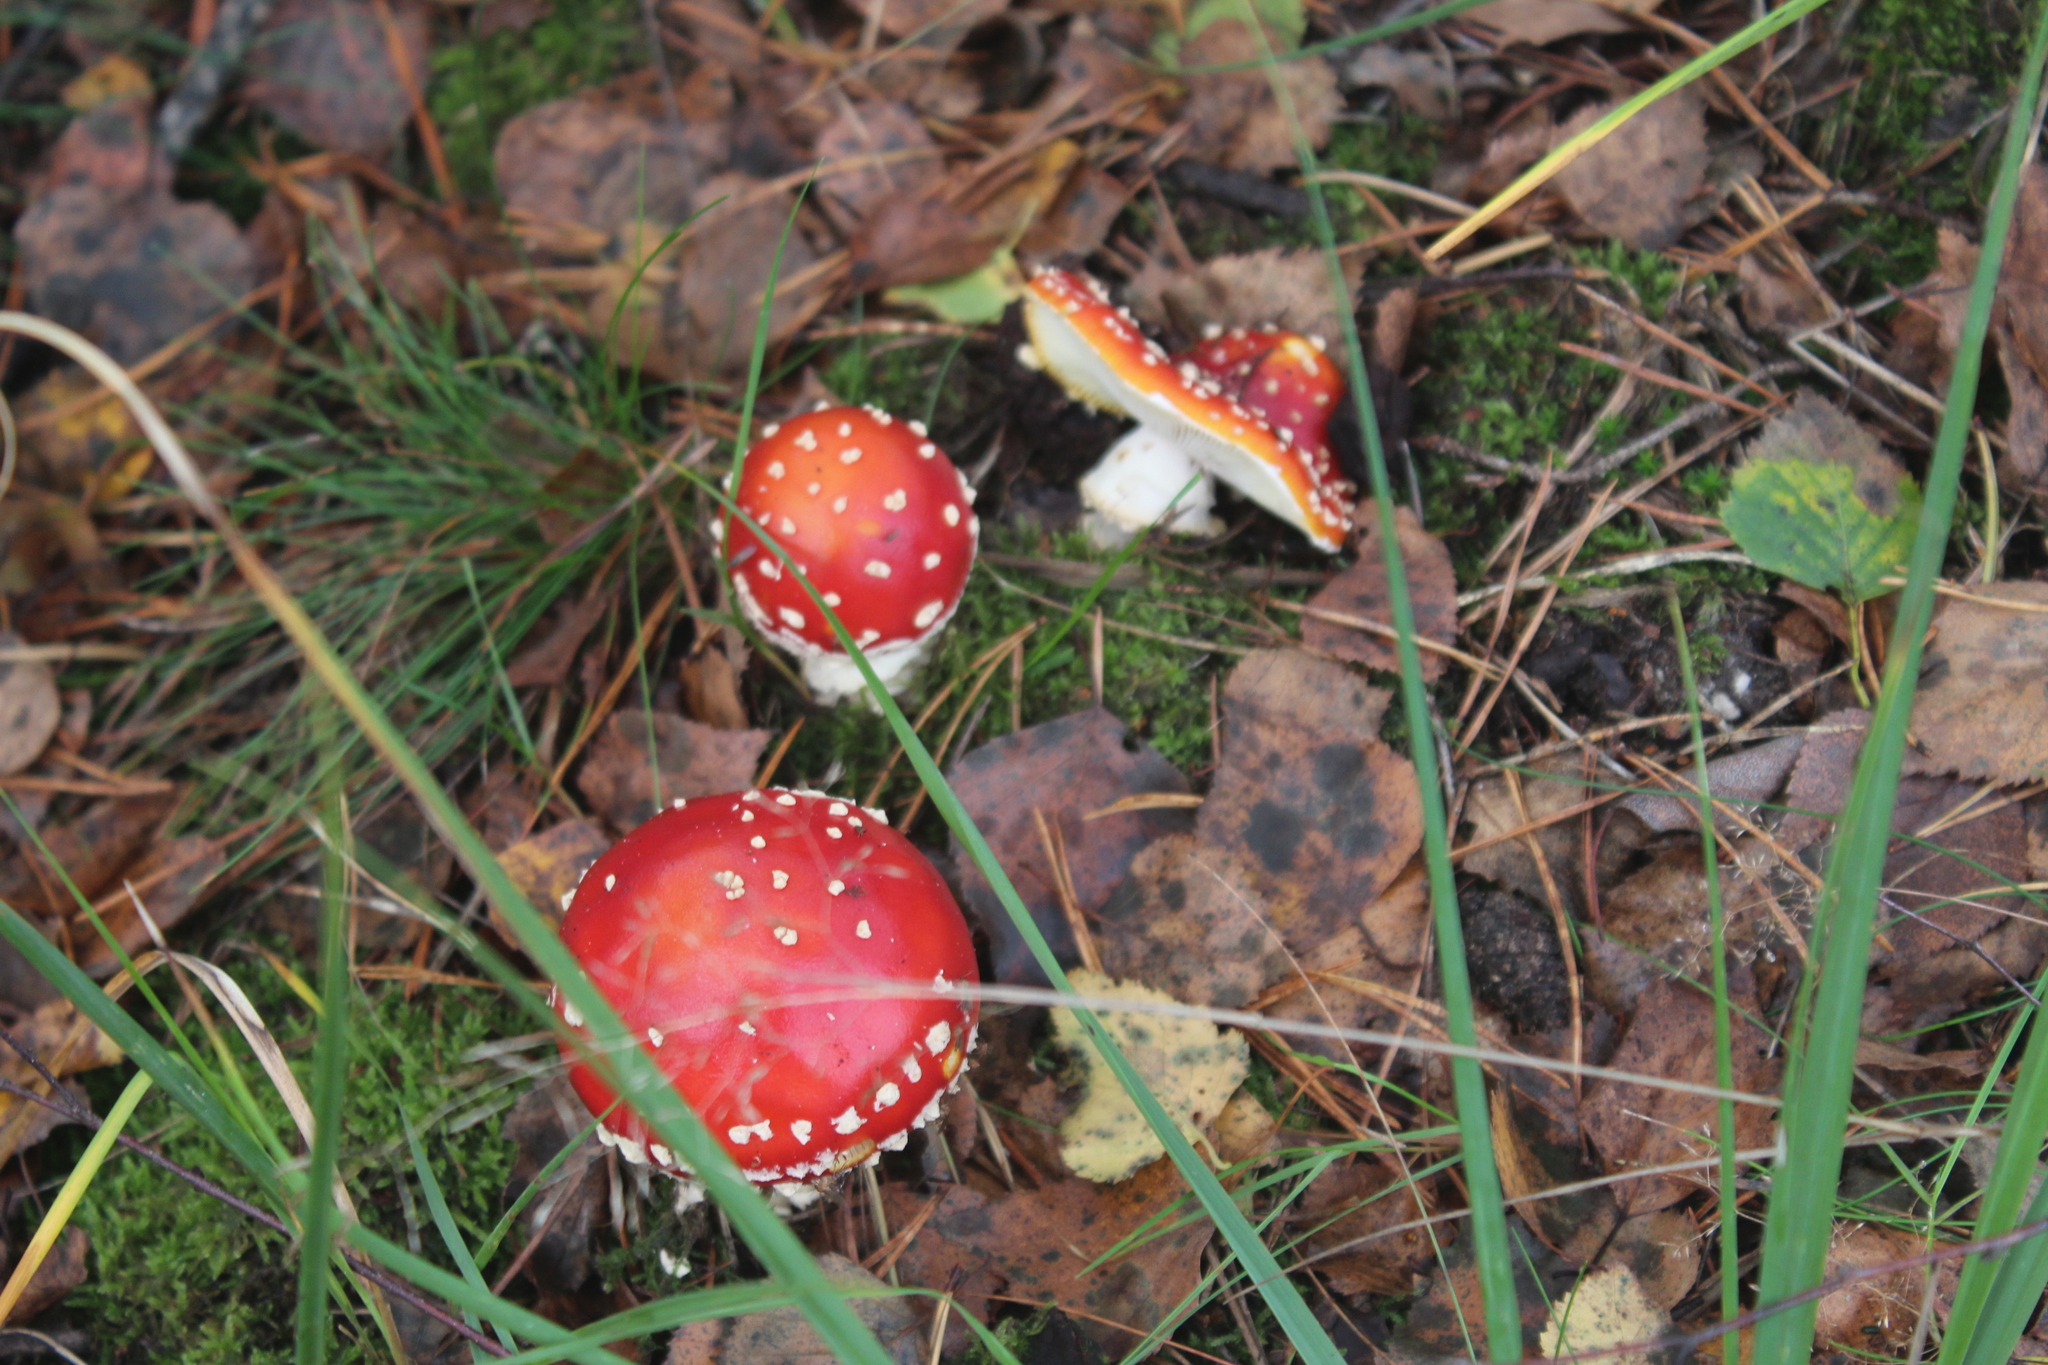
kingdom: Fungi
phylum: Basidiomycota
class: Agaricomycetes
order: Agaricales
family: Amanitaceae
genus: Amanita
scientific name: Amanita muscaria
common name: Fly agaric
